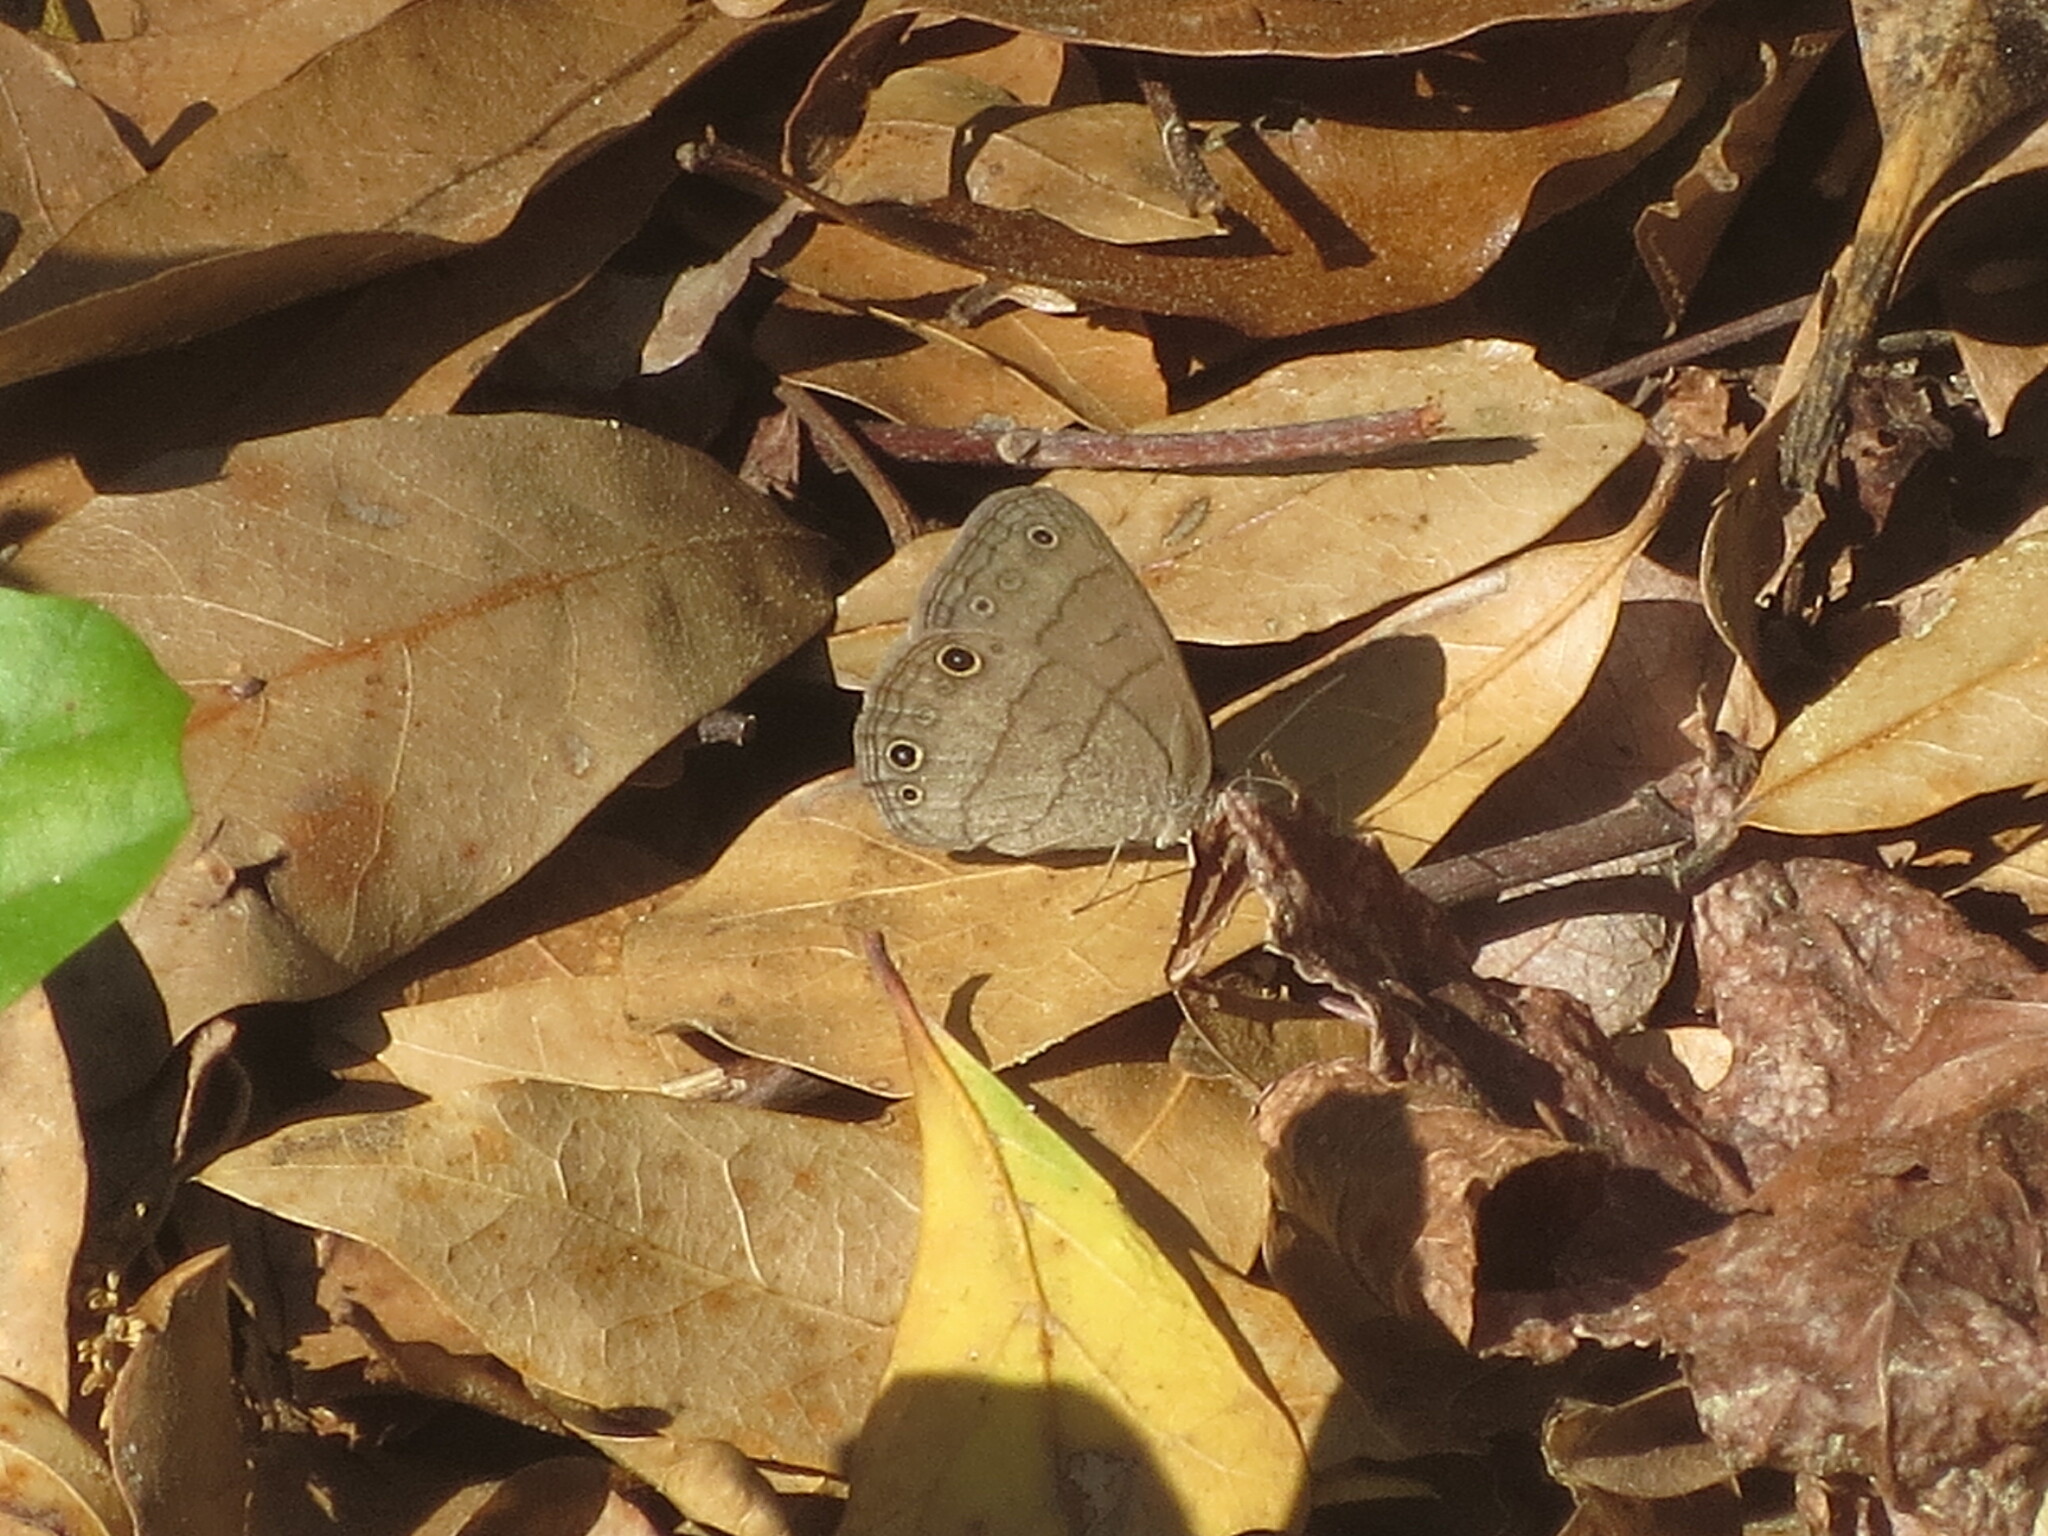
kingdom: Animalia
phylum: Arthropoda
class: Insecta
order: Lepidoptera
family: Nymphalidae
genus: Hermeuptychia
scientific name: Hermeuptychia hermes
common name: Hermes satyr
